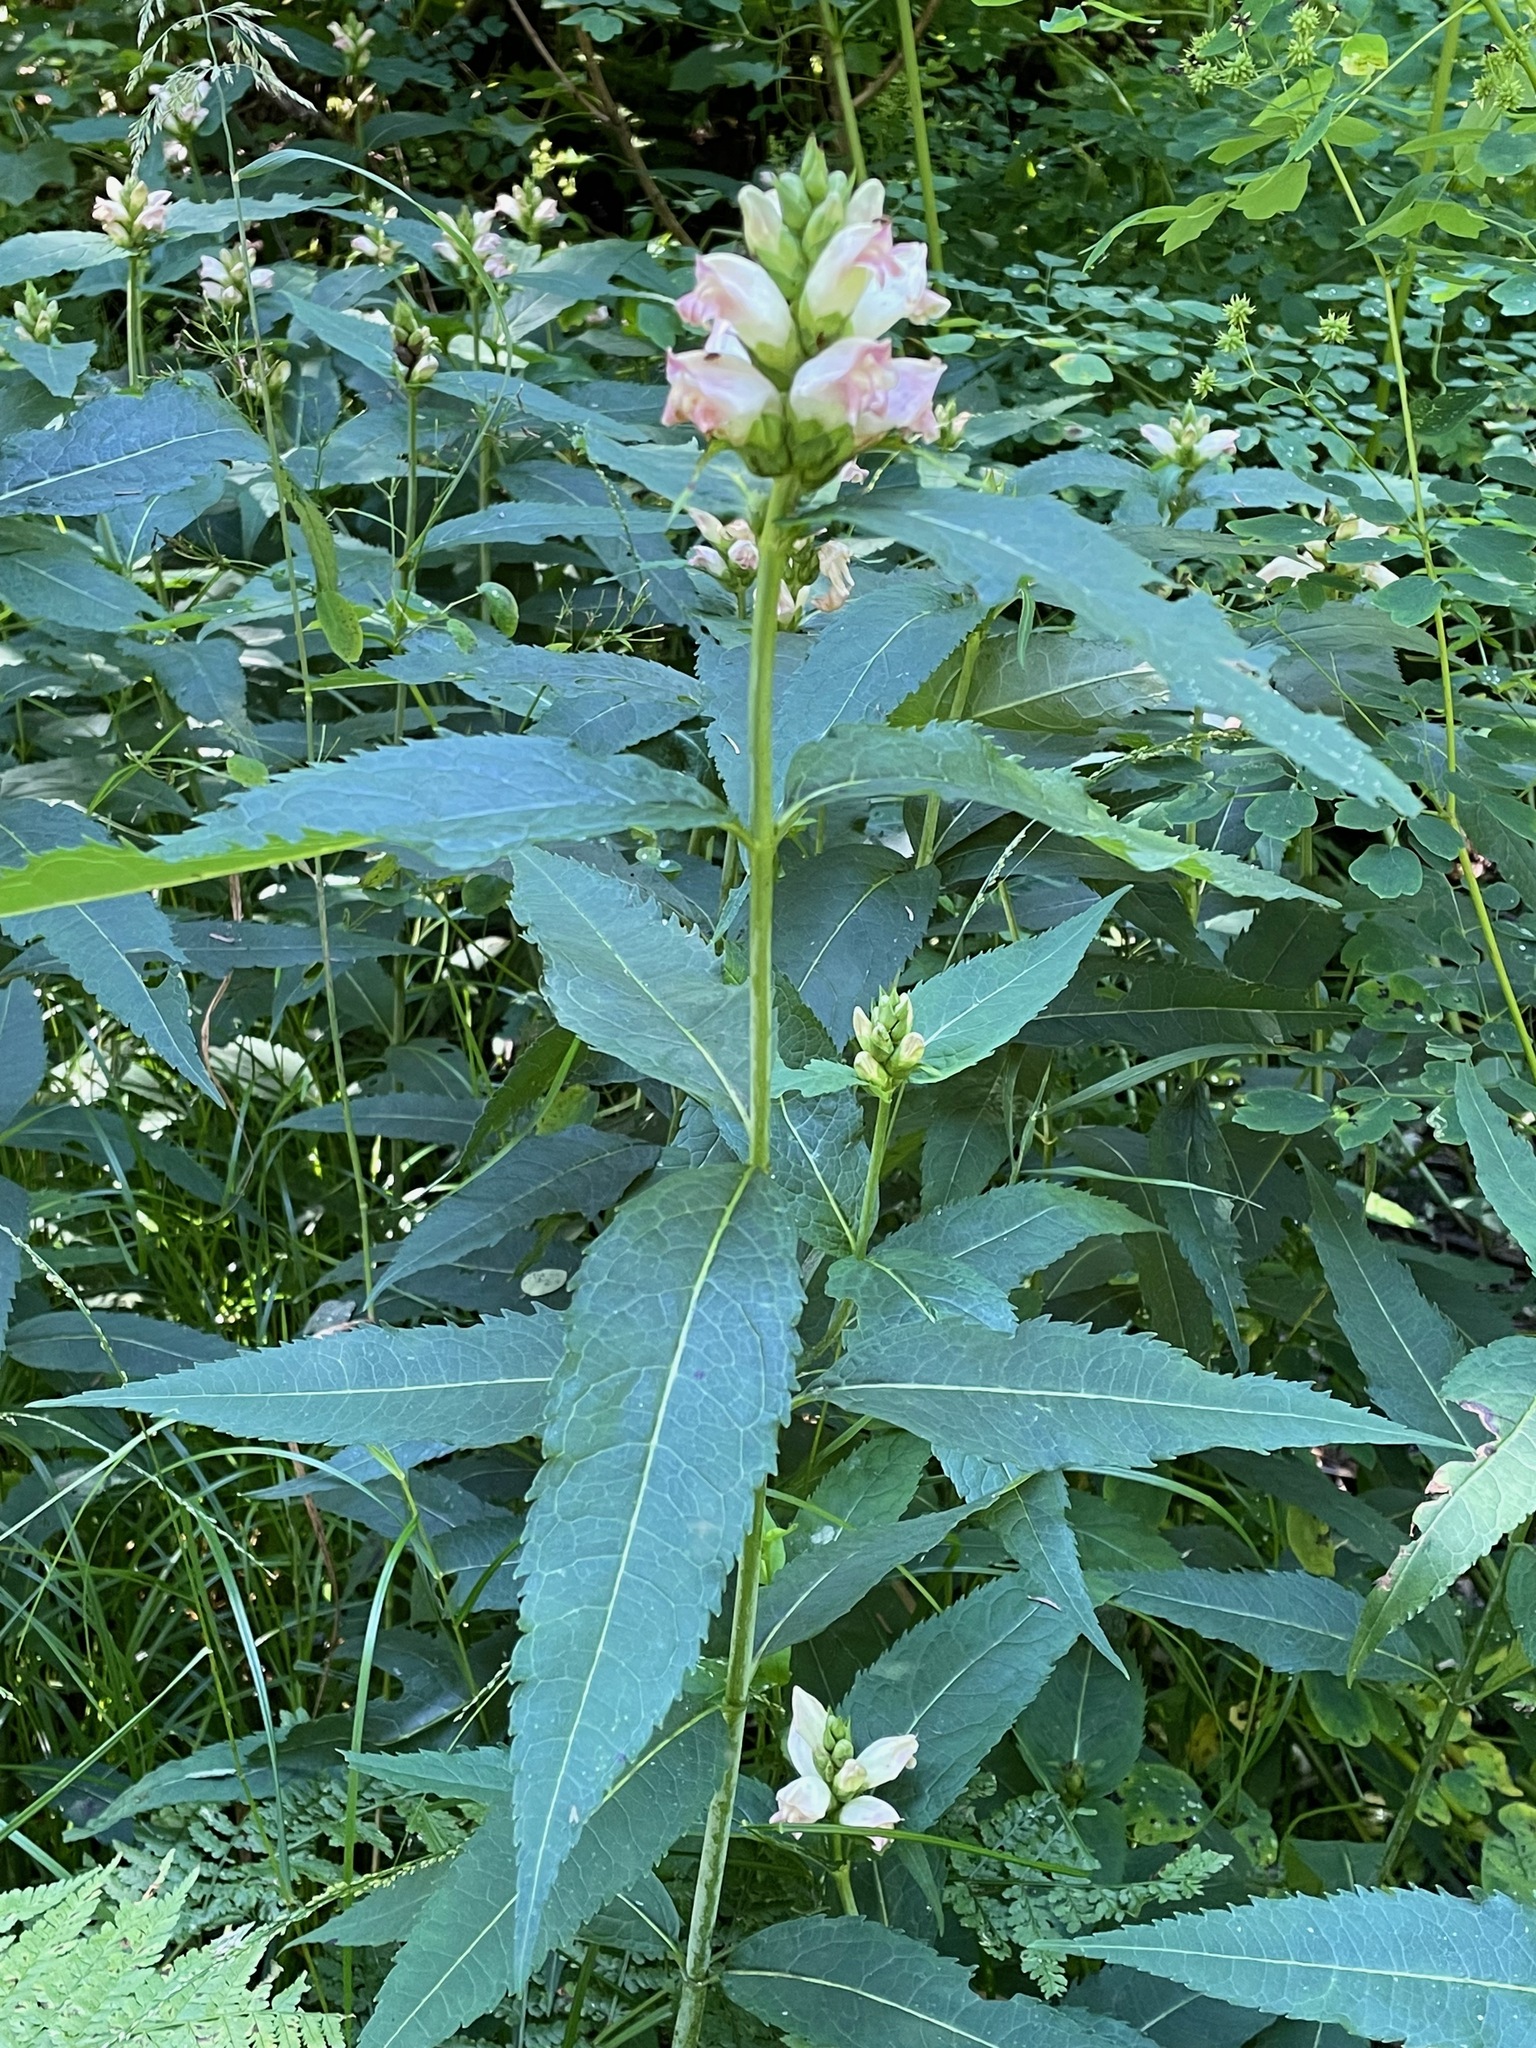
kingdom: Plantae
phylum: Tracheophyta
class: Magnoliopsida
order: Lamiales
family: Plantaginaceae
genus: Chelone
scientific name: Chelone glabra
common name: Snakehead
